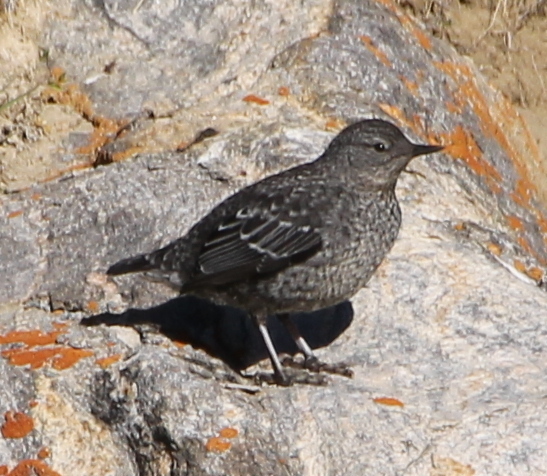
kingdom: Animalia
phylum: Chordata
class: Aves
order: Passeriformes
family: Cinclidae
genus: Cinclus
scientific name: Cinclus pallasii
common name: Brown dipper
